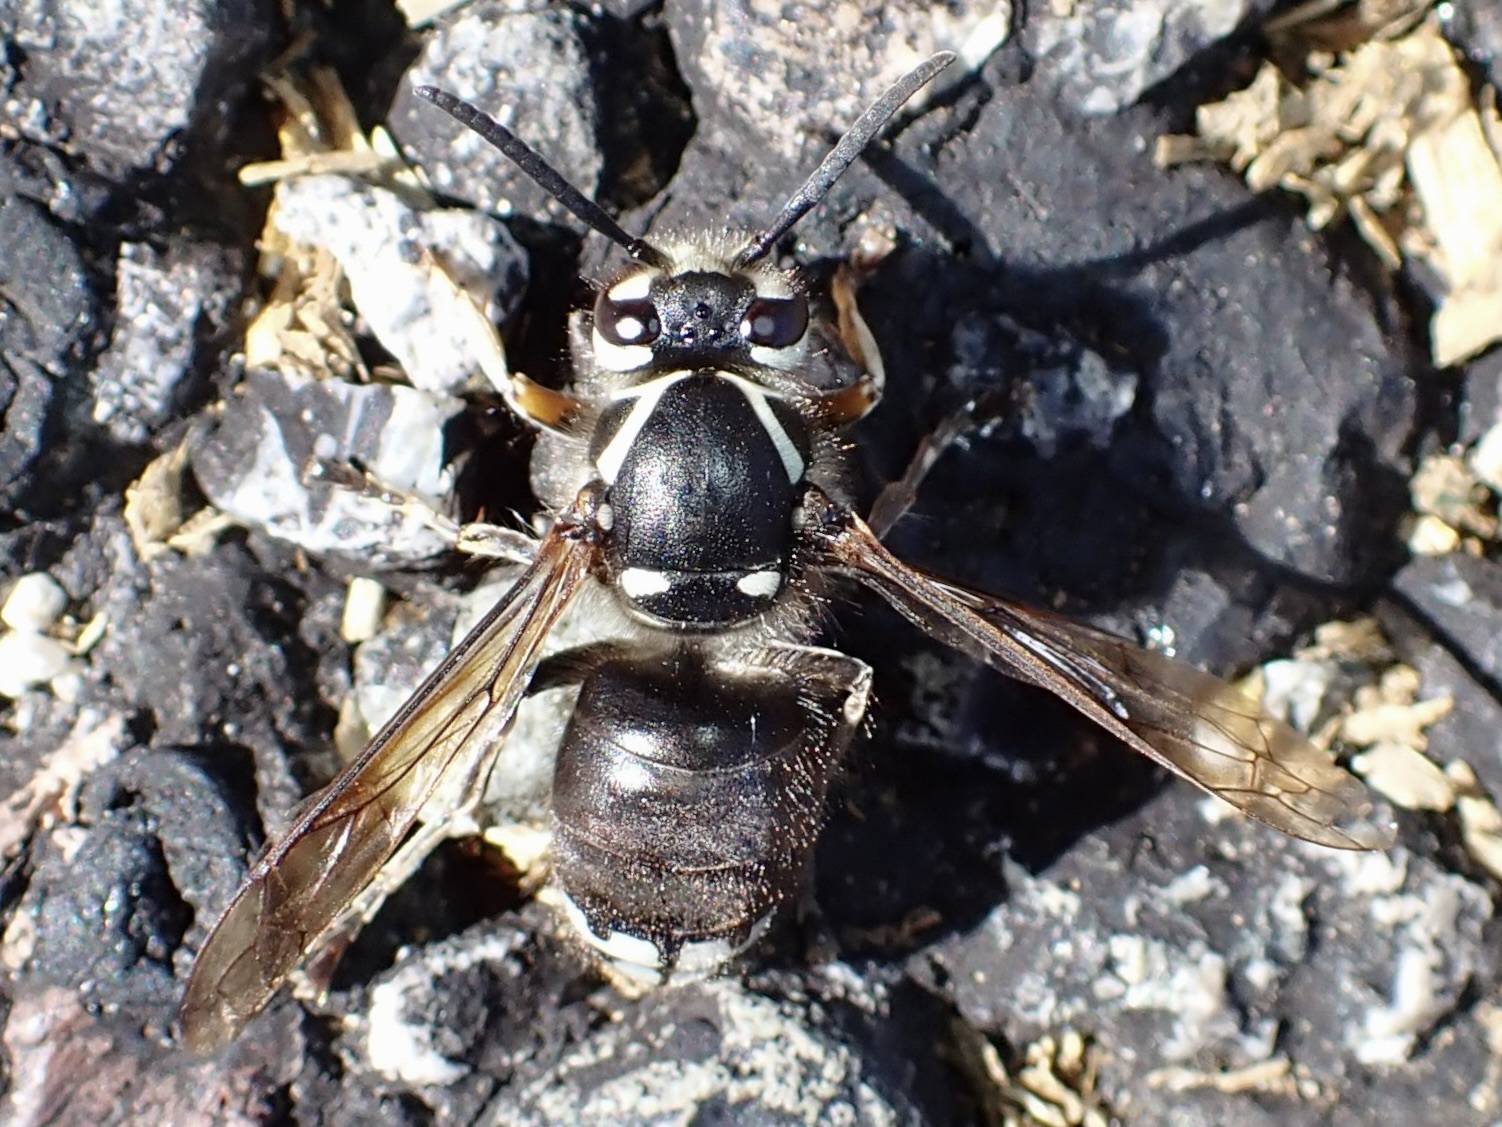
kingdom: Animalia
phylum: Arthropoda
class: Insecta
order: Hymenoptera
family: Vespidae
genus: Dolichovespula
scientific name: Dolichovespula maculata
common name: Bald-faced hornet
